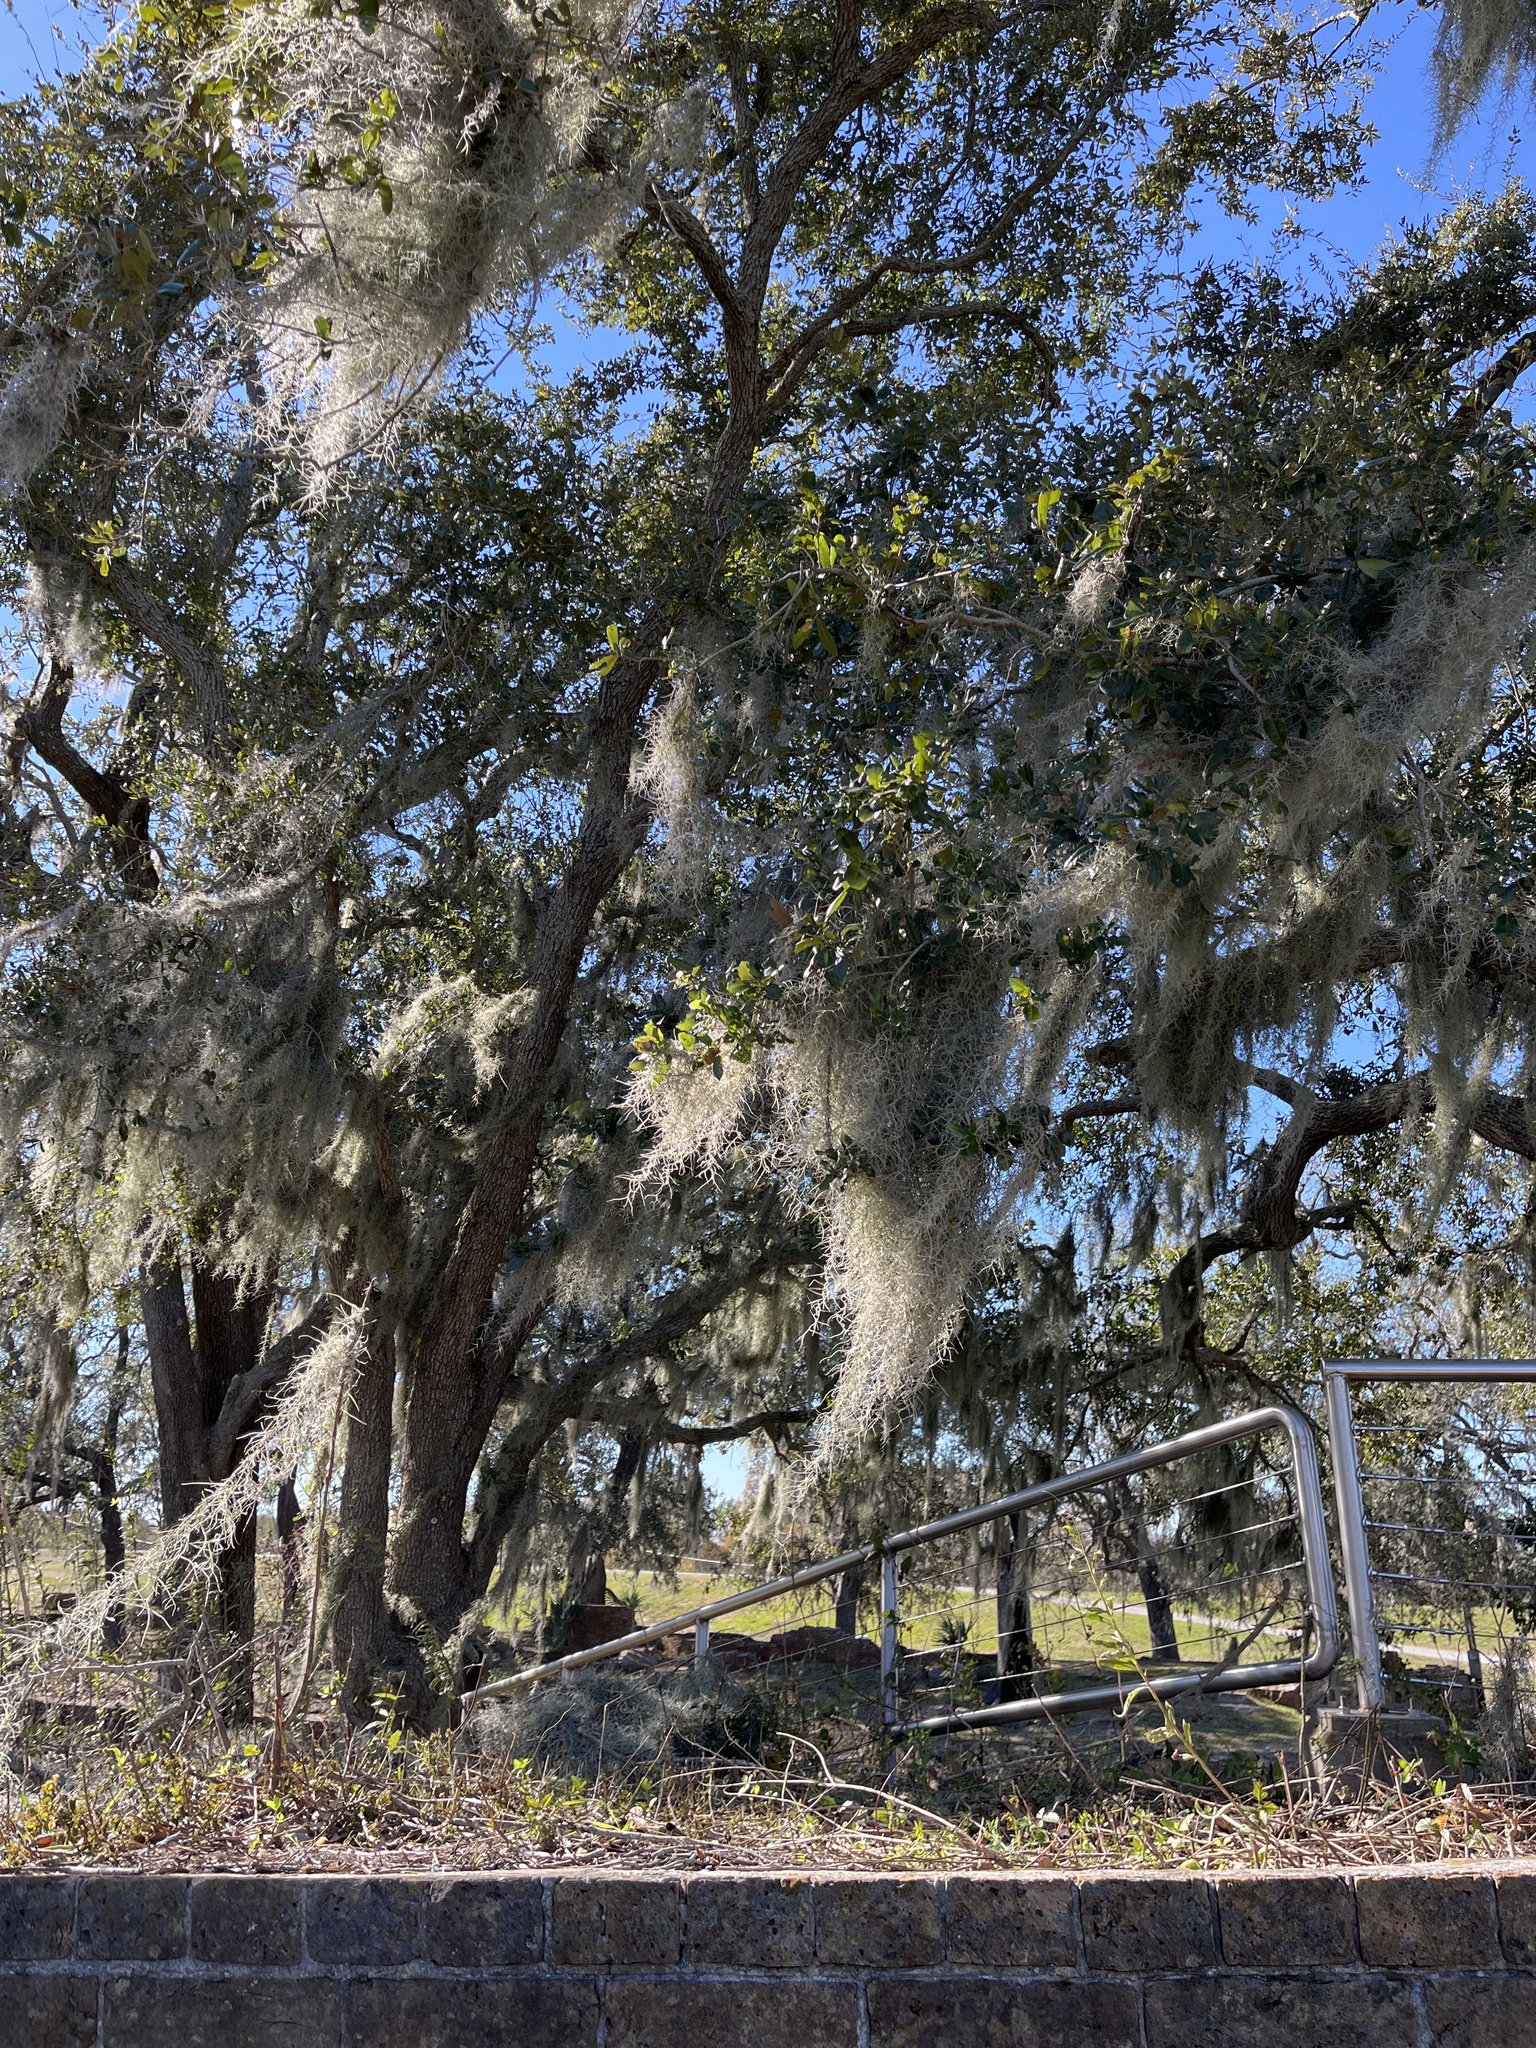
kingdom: Plantae
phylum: Tracheophyta
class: Liliopsida
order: Poales
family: Bromeliaceae
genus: Tillandsia
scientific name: Tillandsia usneoides
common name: Spanish moss
